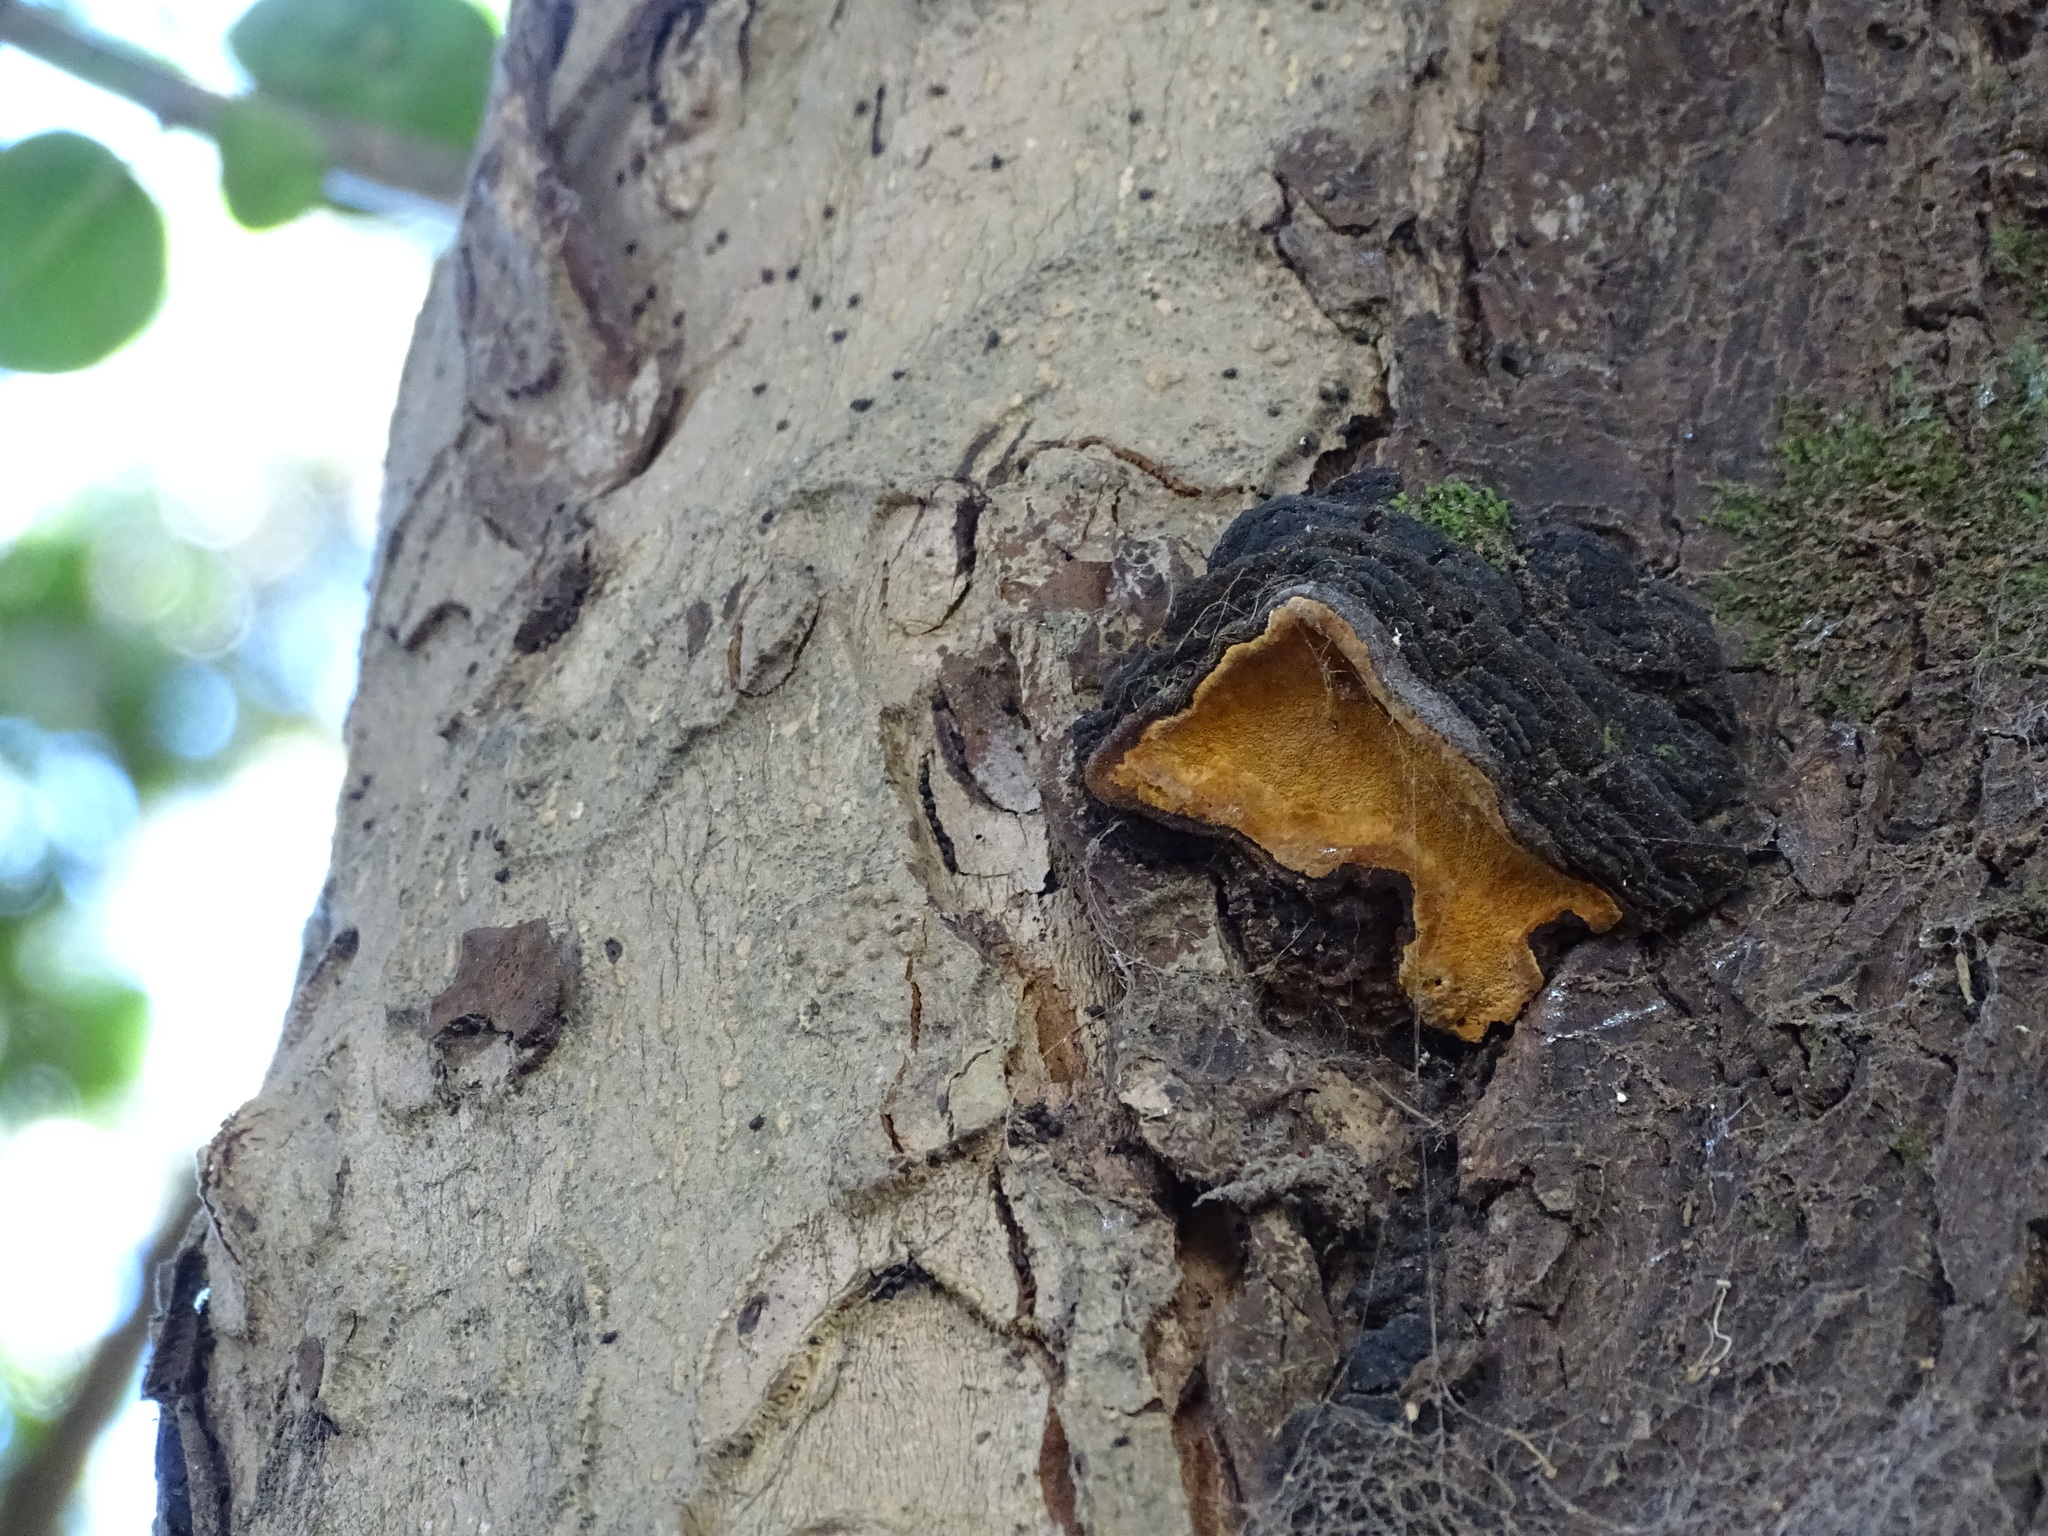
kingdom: Fungi
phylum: Basidiomycota
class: Agaricomycetes
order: Hymenochaetales
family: Hymenochaetaceae
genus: Phylloporia
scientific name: Phylloporia boldo
